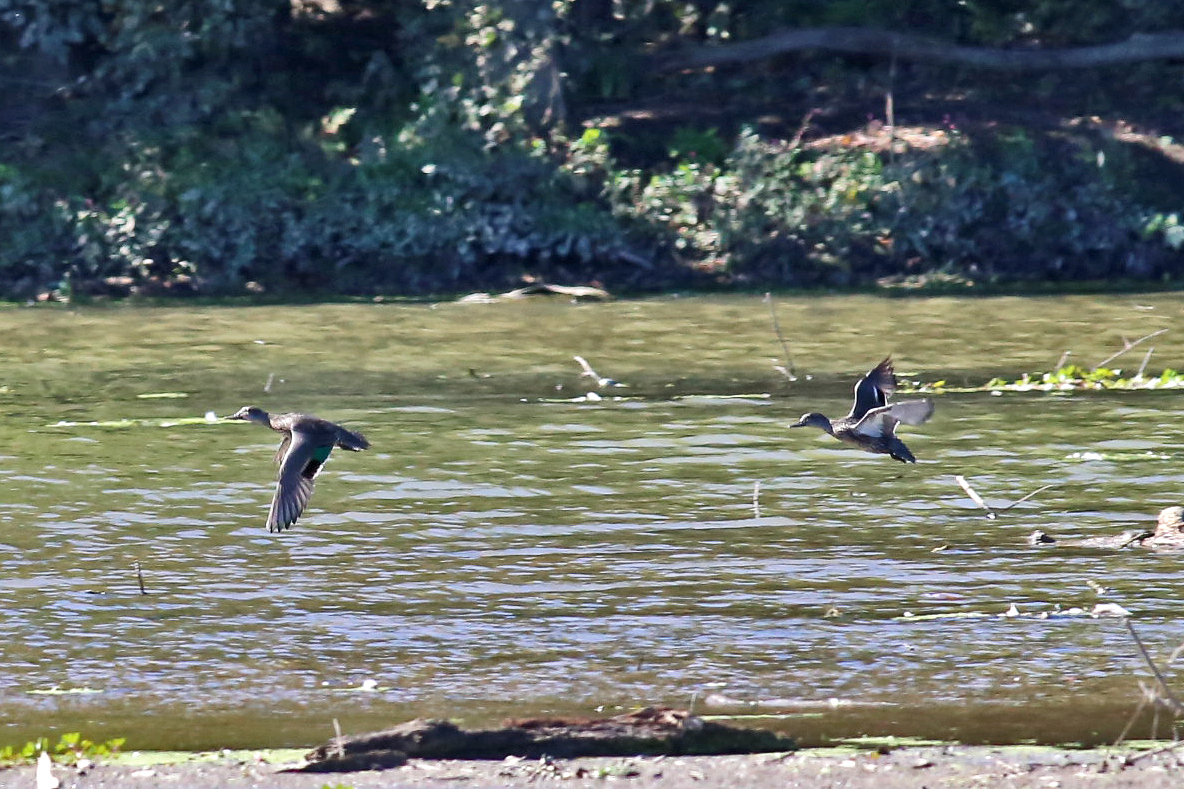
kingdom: Animalia
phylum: Chordata
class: Aves
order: Anseriformes
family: Anatidae
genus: Anas
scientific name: Anas carolinensis
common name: Green-winged teal
